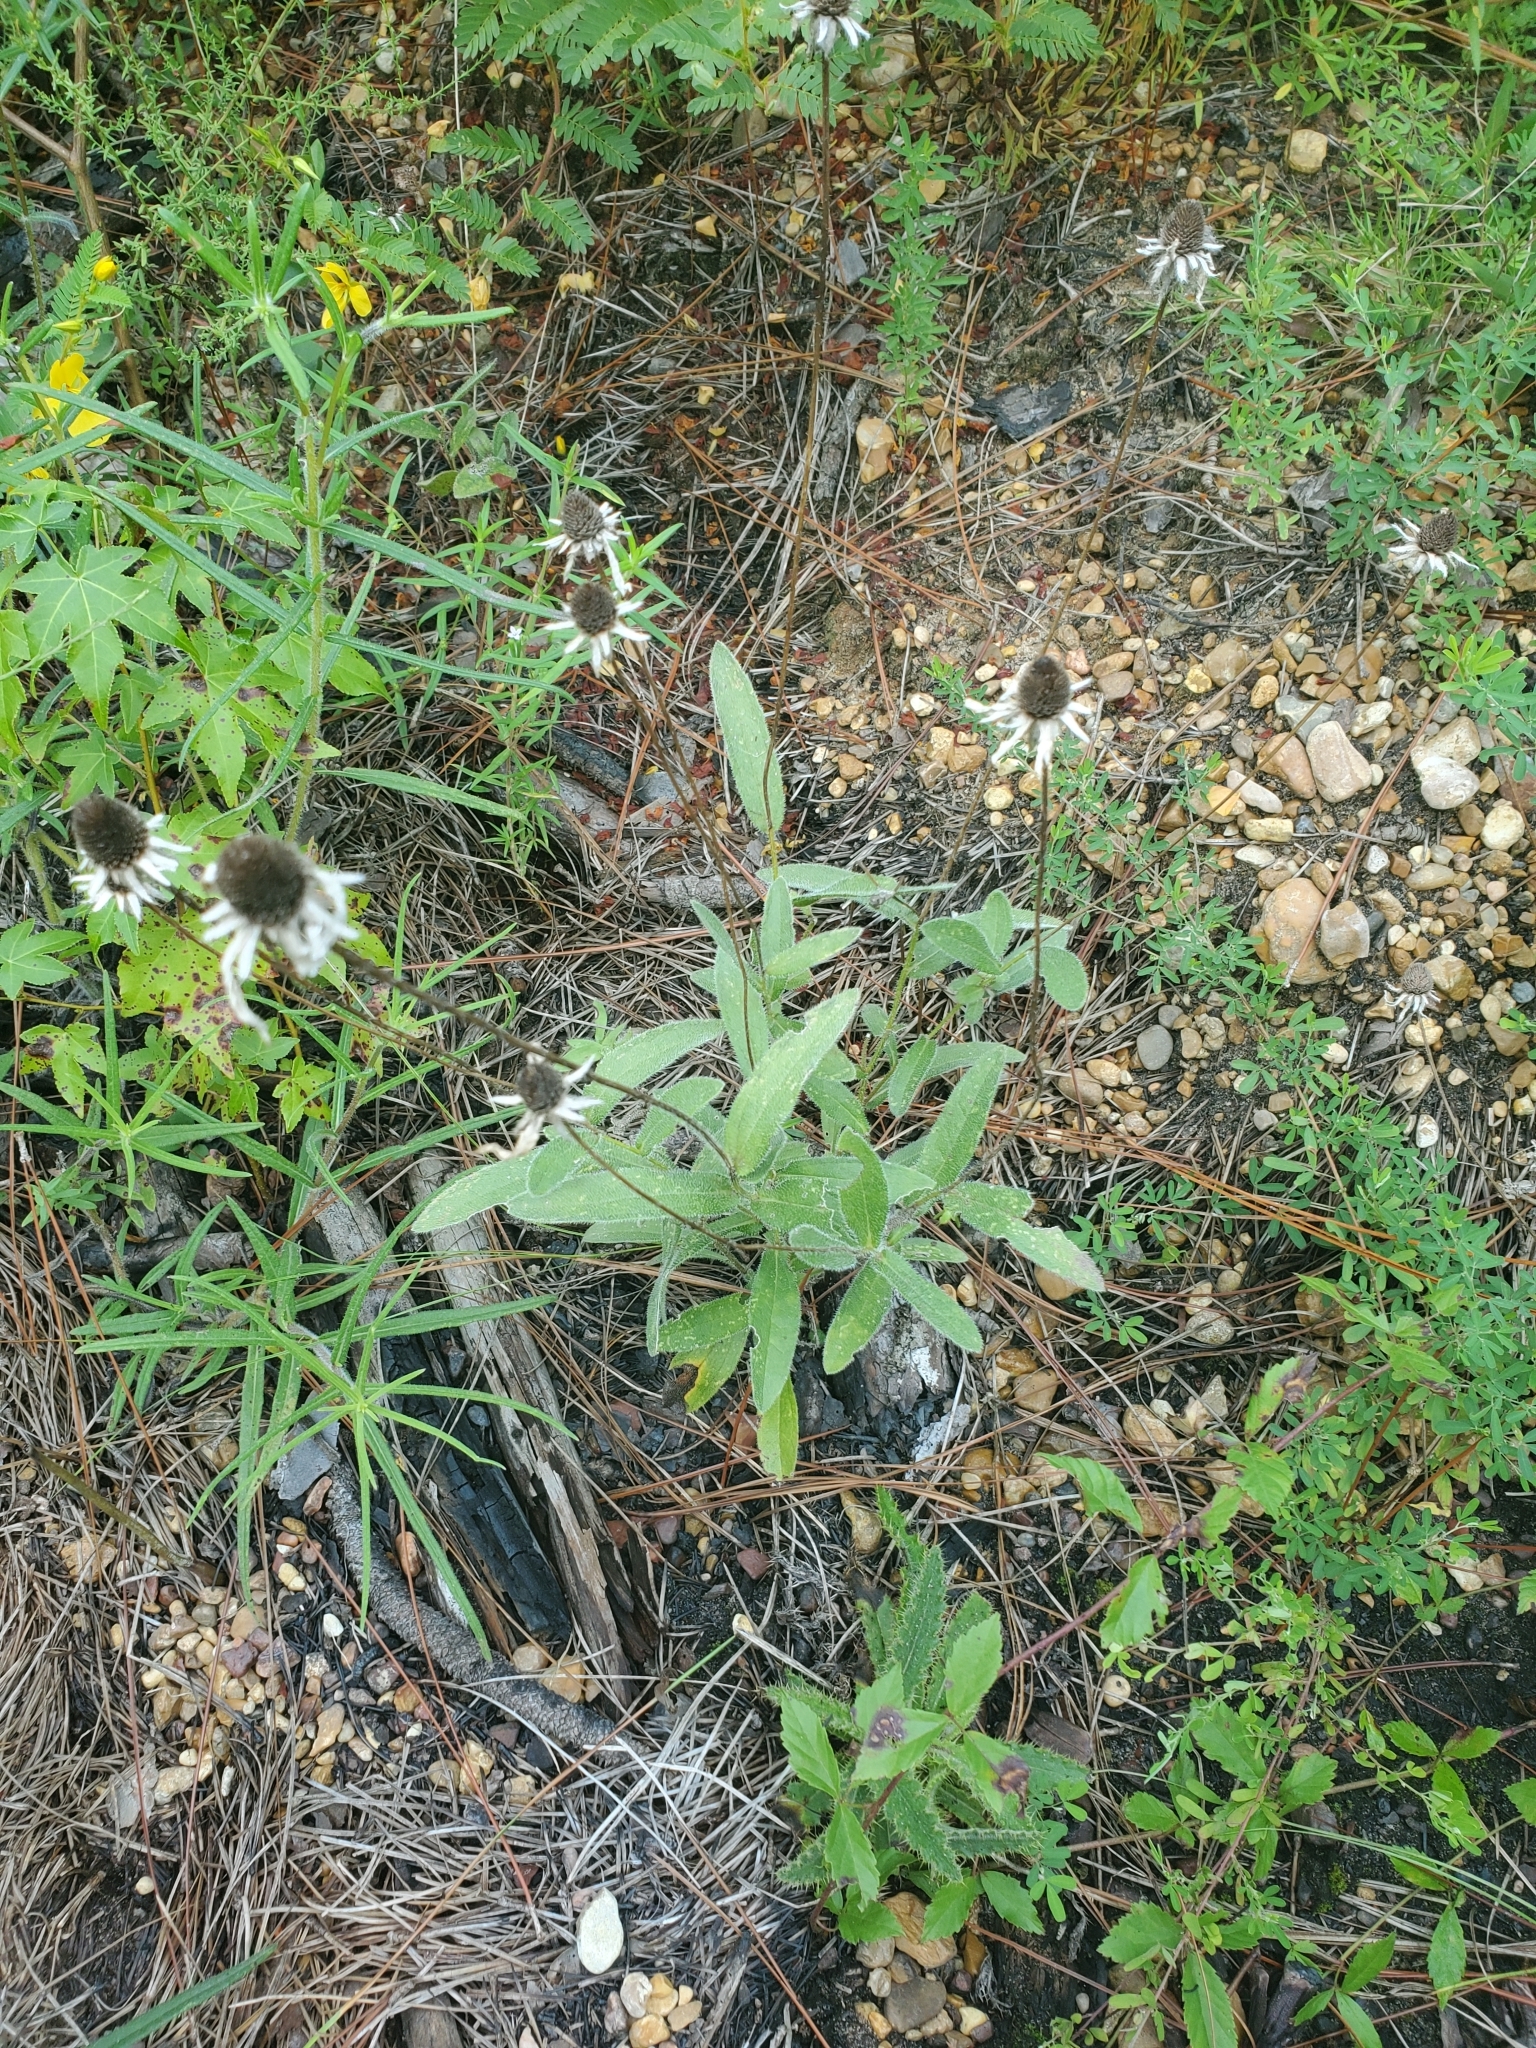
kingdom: Plantae
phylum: Tracheophyta
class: Magnoliopsida
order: Asterales
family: Asteraceae
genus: Rudbeckia
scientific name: Rudbeckia hirta
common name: Black-eyed-susan
